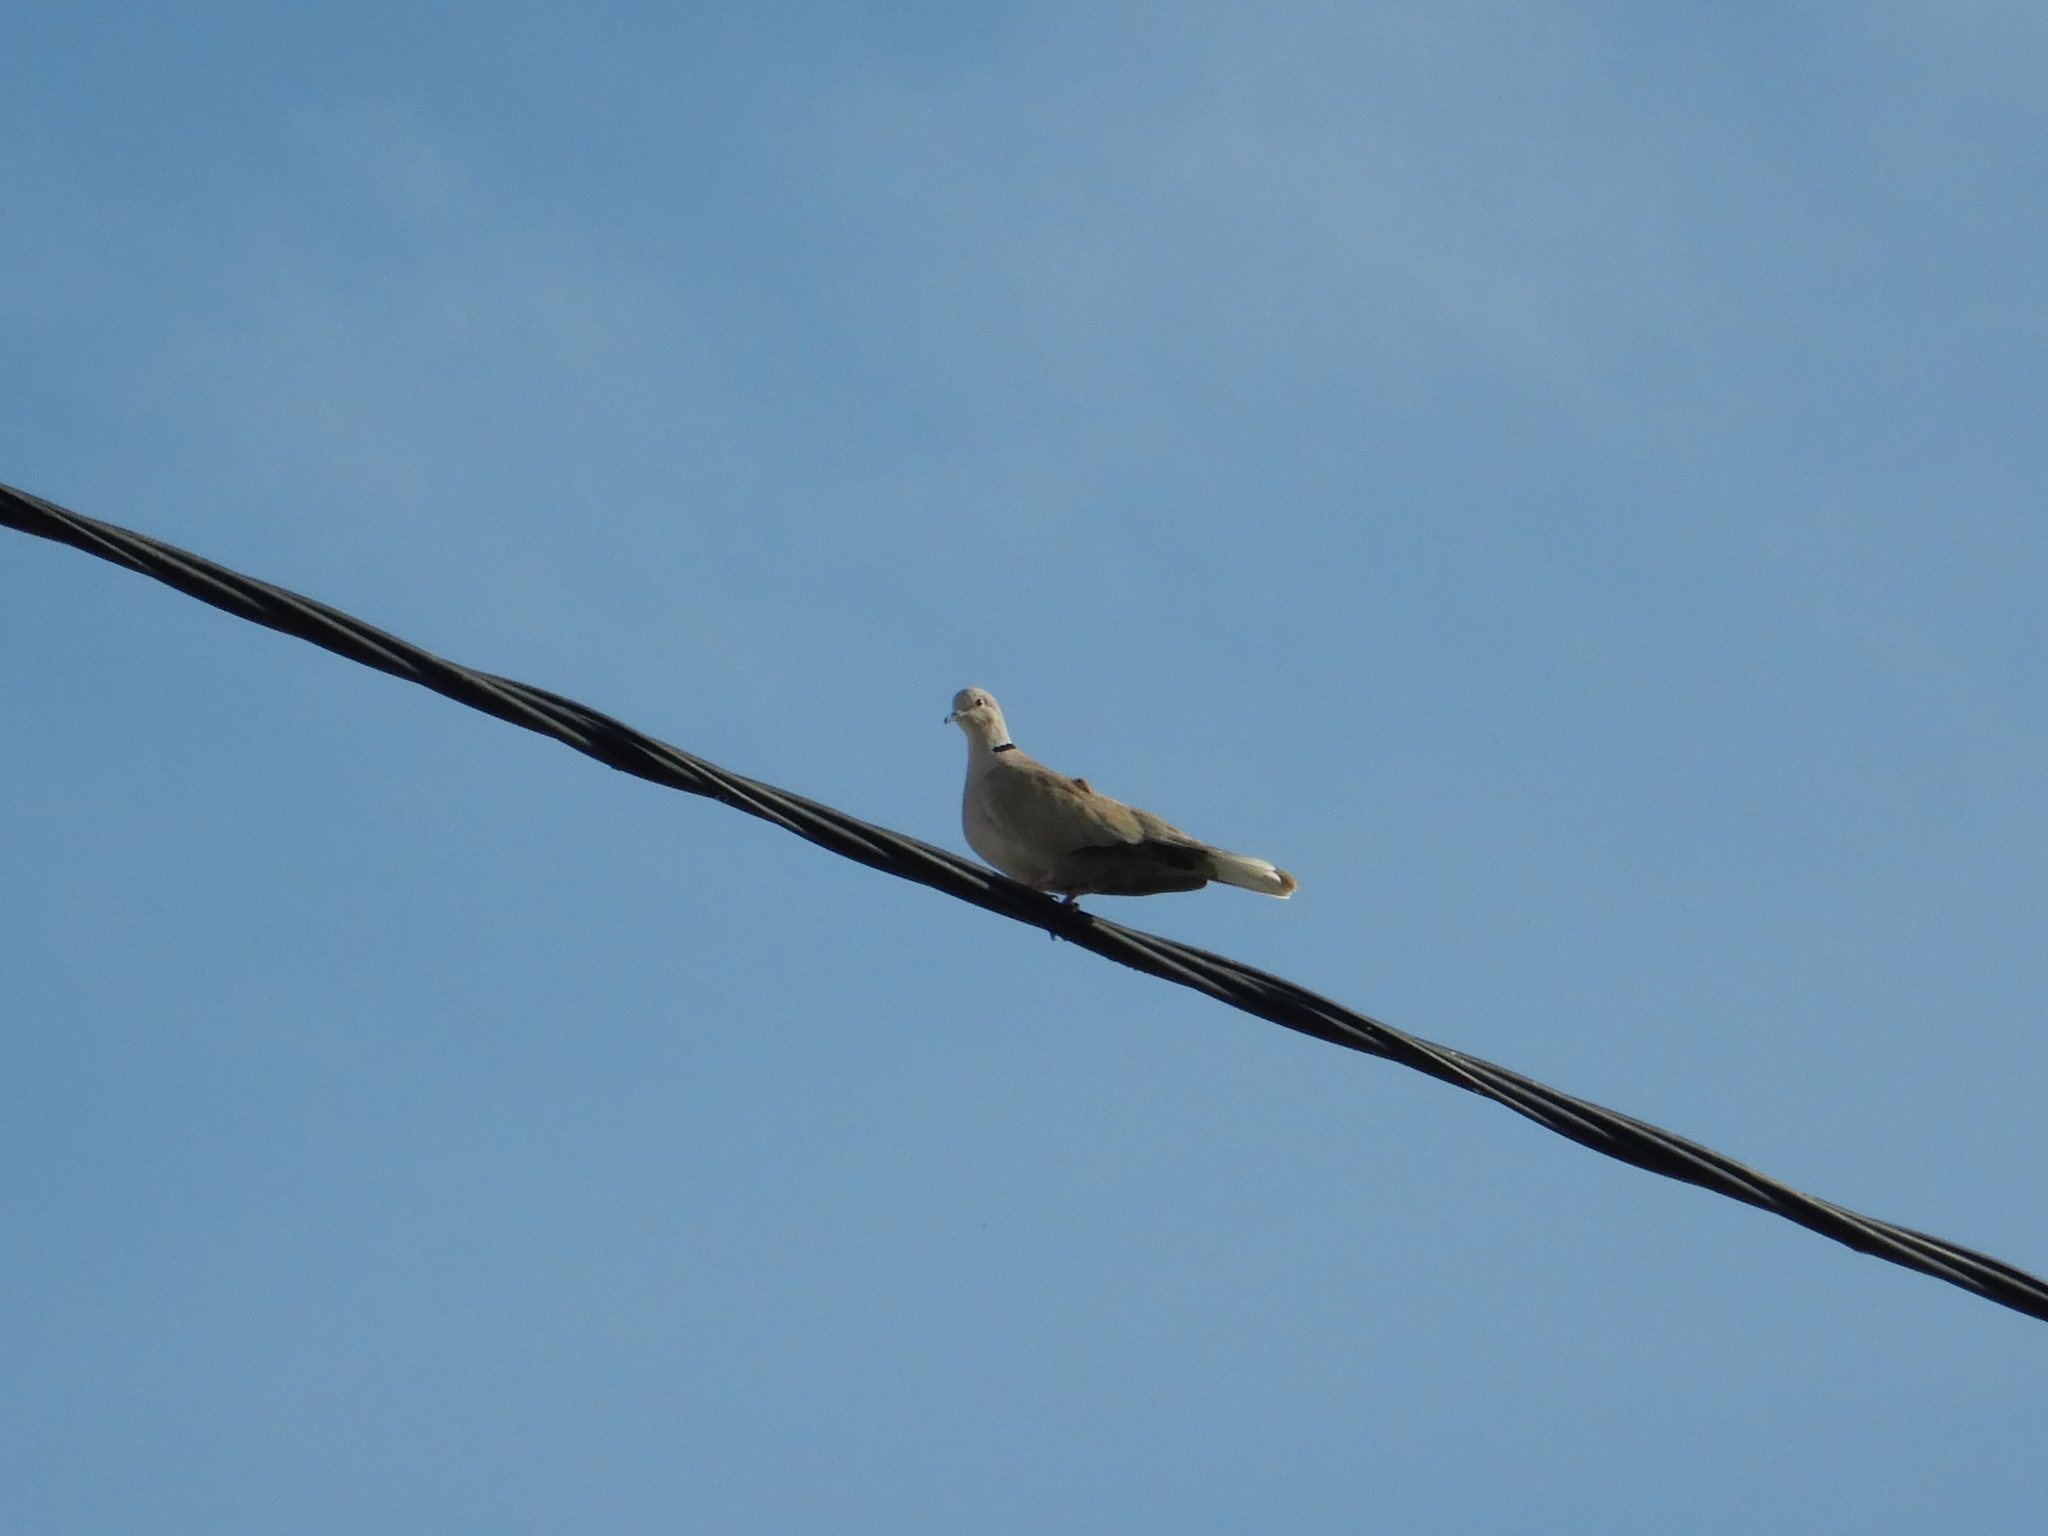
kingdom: Animalia
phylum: Chordata
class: Aves
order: Columbiformes
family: Columbidae
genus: Streptopelia
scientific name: Streptopelia decaocto
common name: Eurasian collared dove
